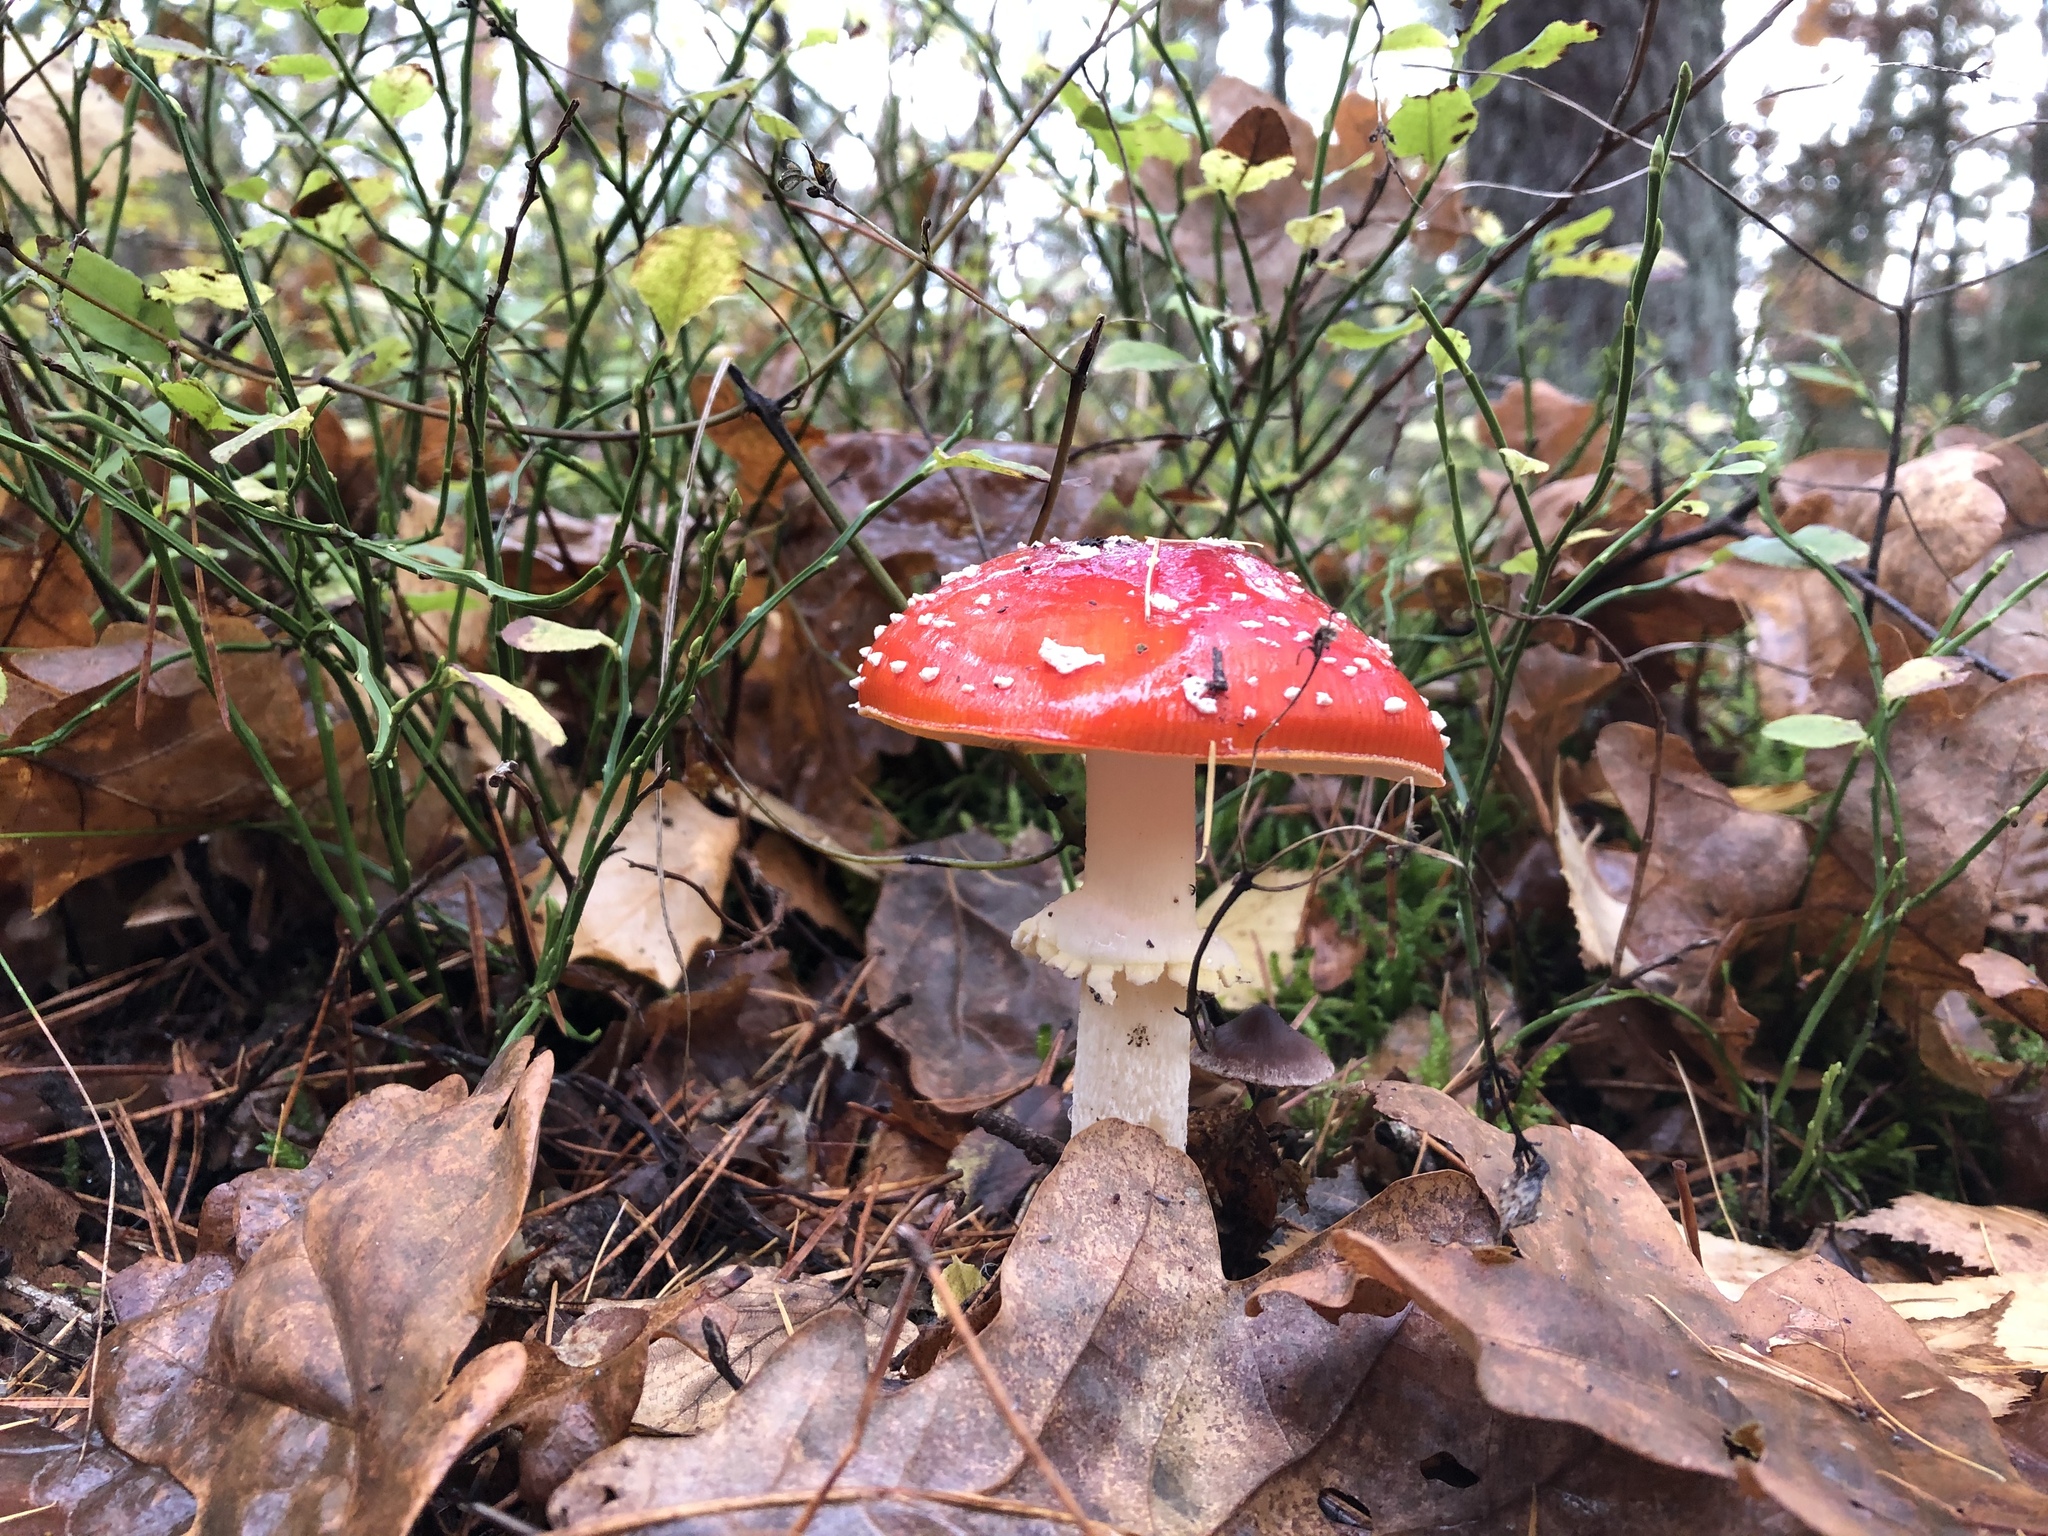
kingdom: Fungi
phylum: Basidiomycota
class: Agaricomycetes
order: Agaricales
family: Amanitaceae
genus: Amanita
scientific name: Amanita muscaria
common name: Fly agaric
